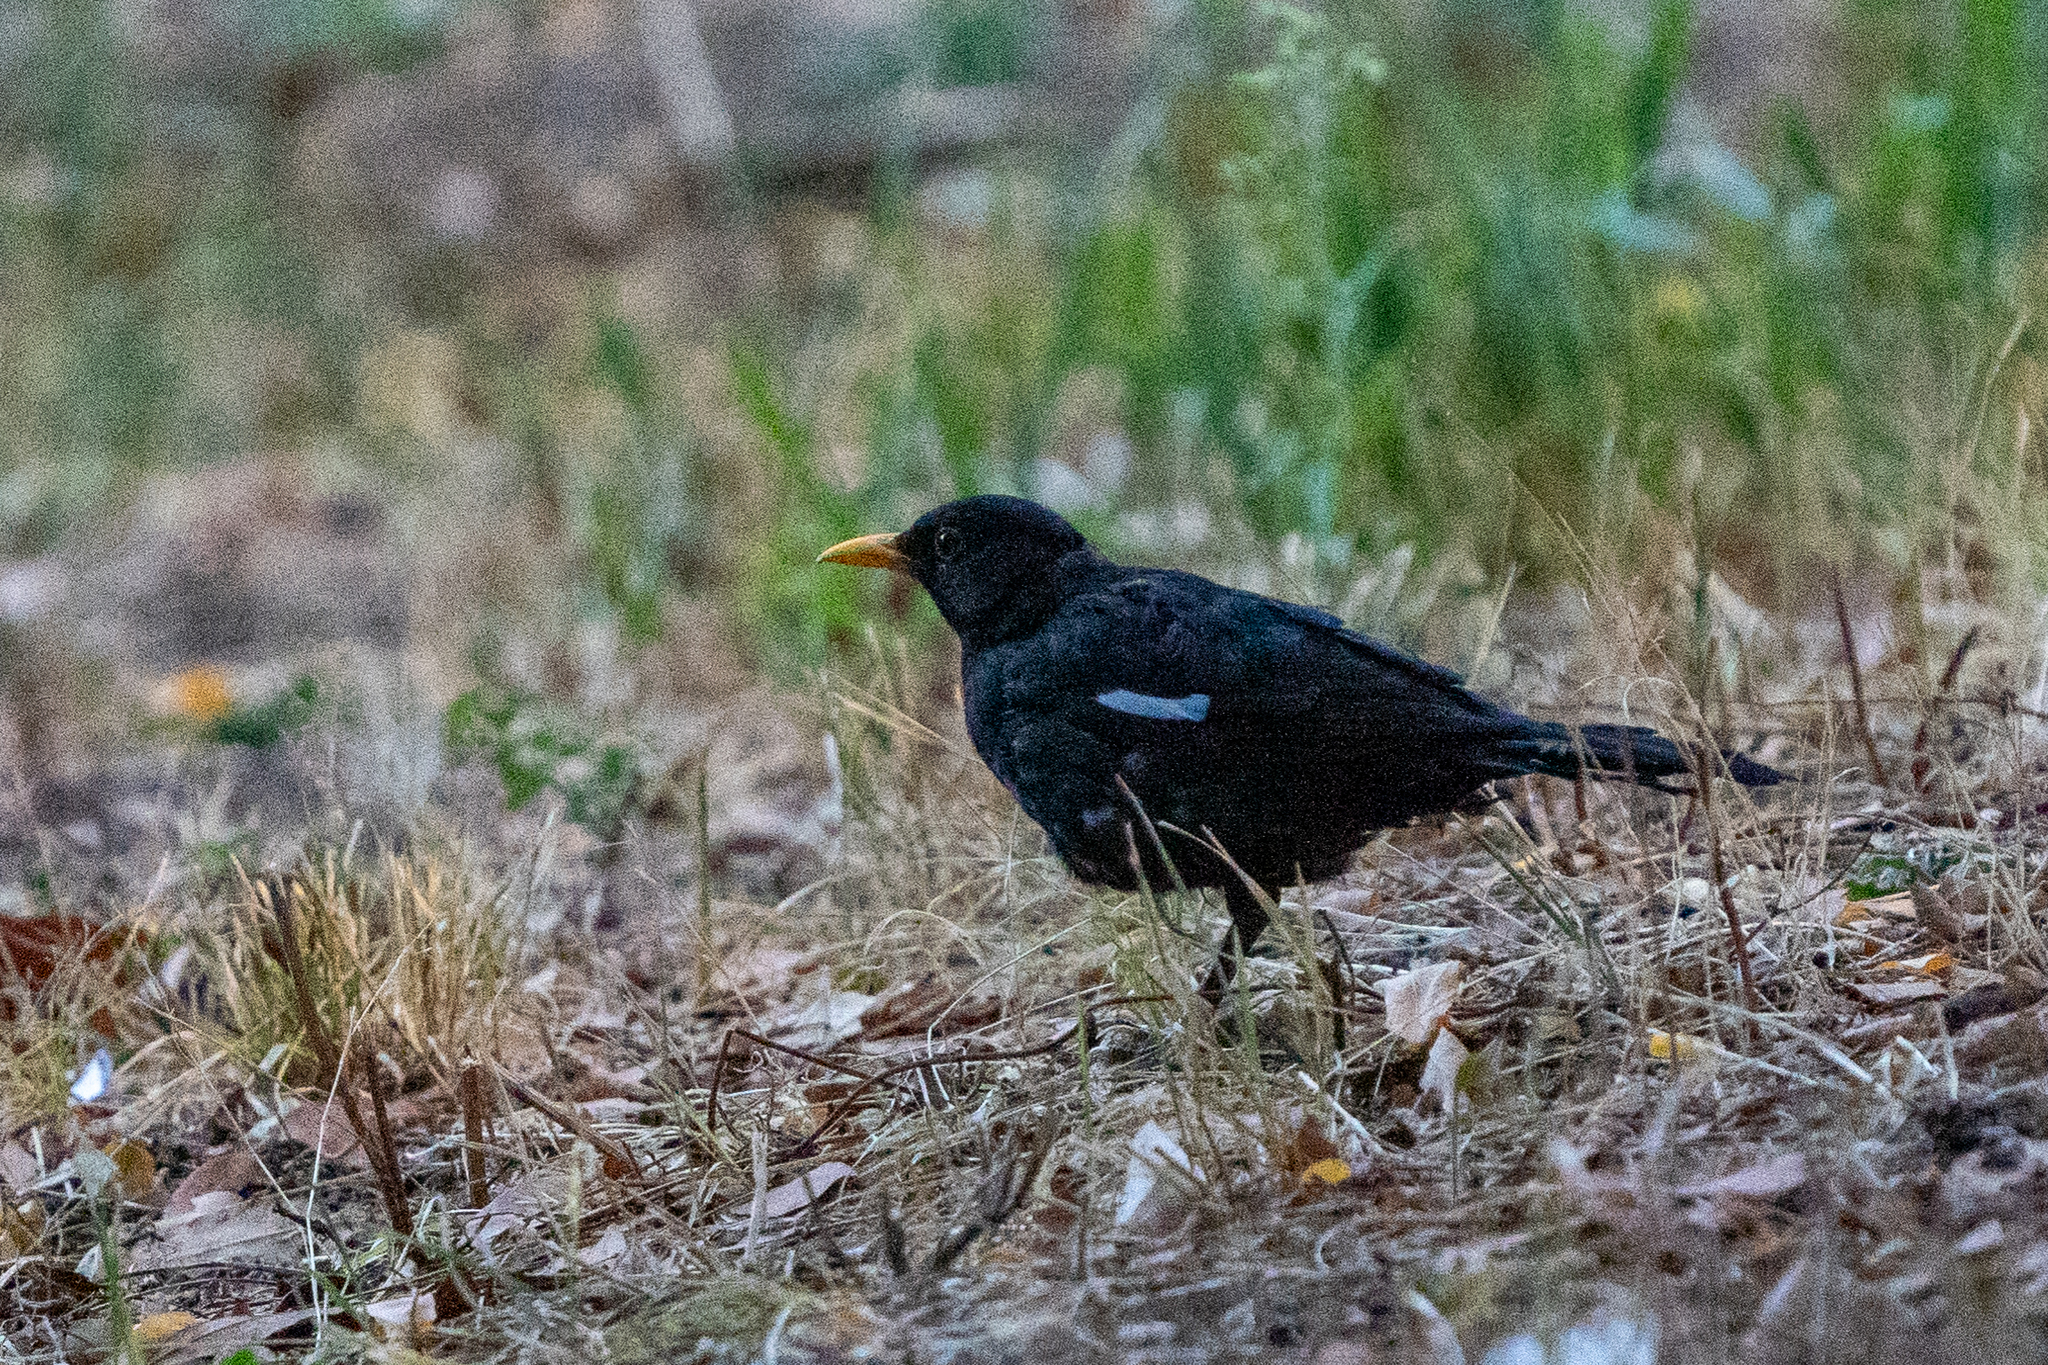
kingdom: Animalia
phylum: Chordata
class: Aves
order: Passeriformes
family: Turdidae
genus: Turdus
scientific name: Turdus merula
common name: Common blackbird
